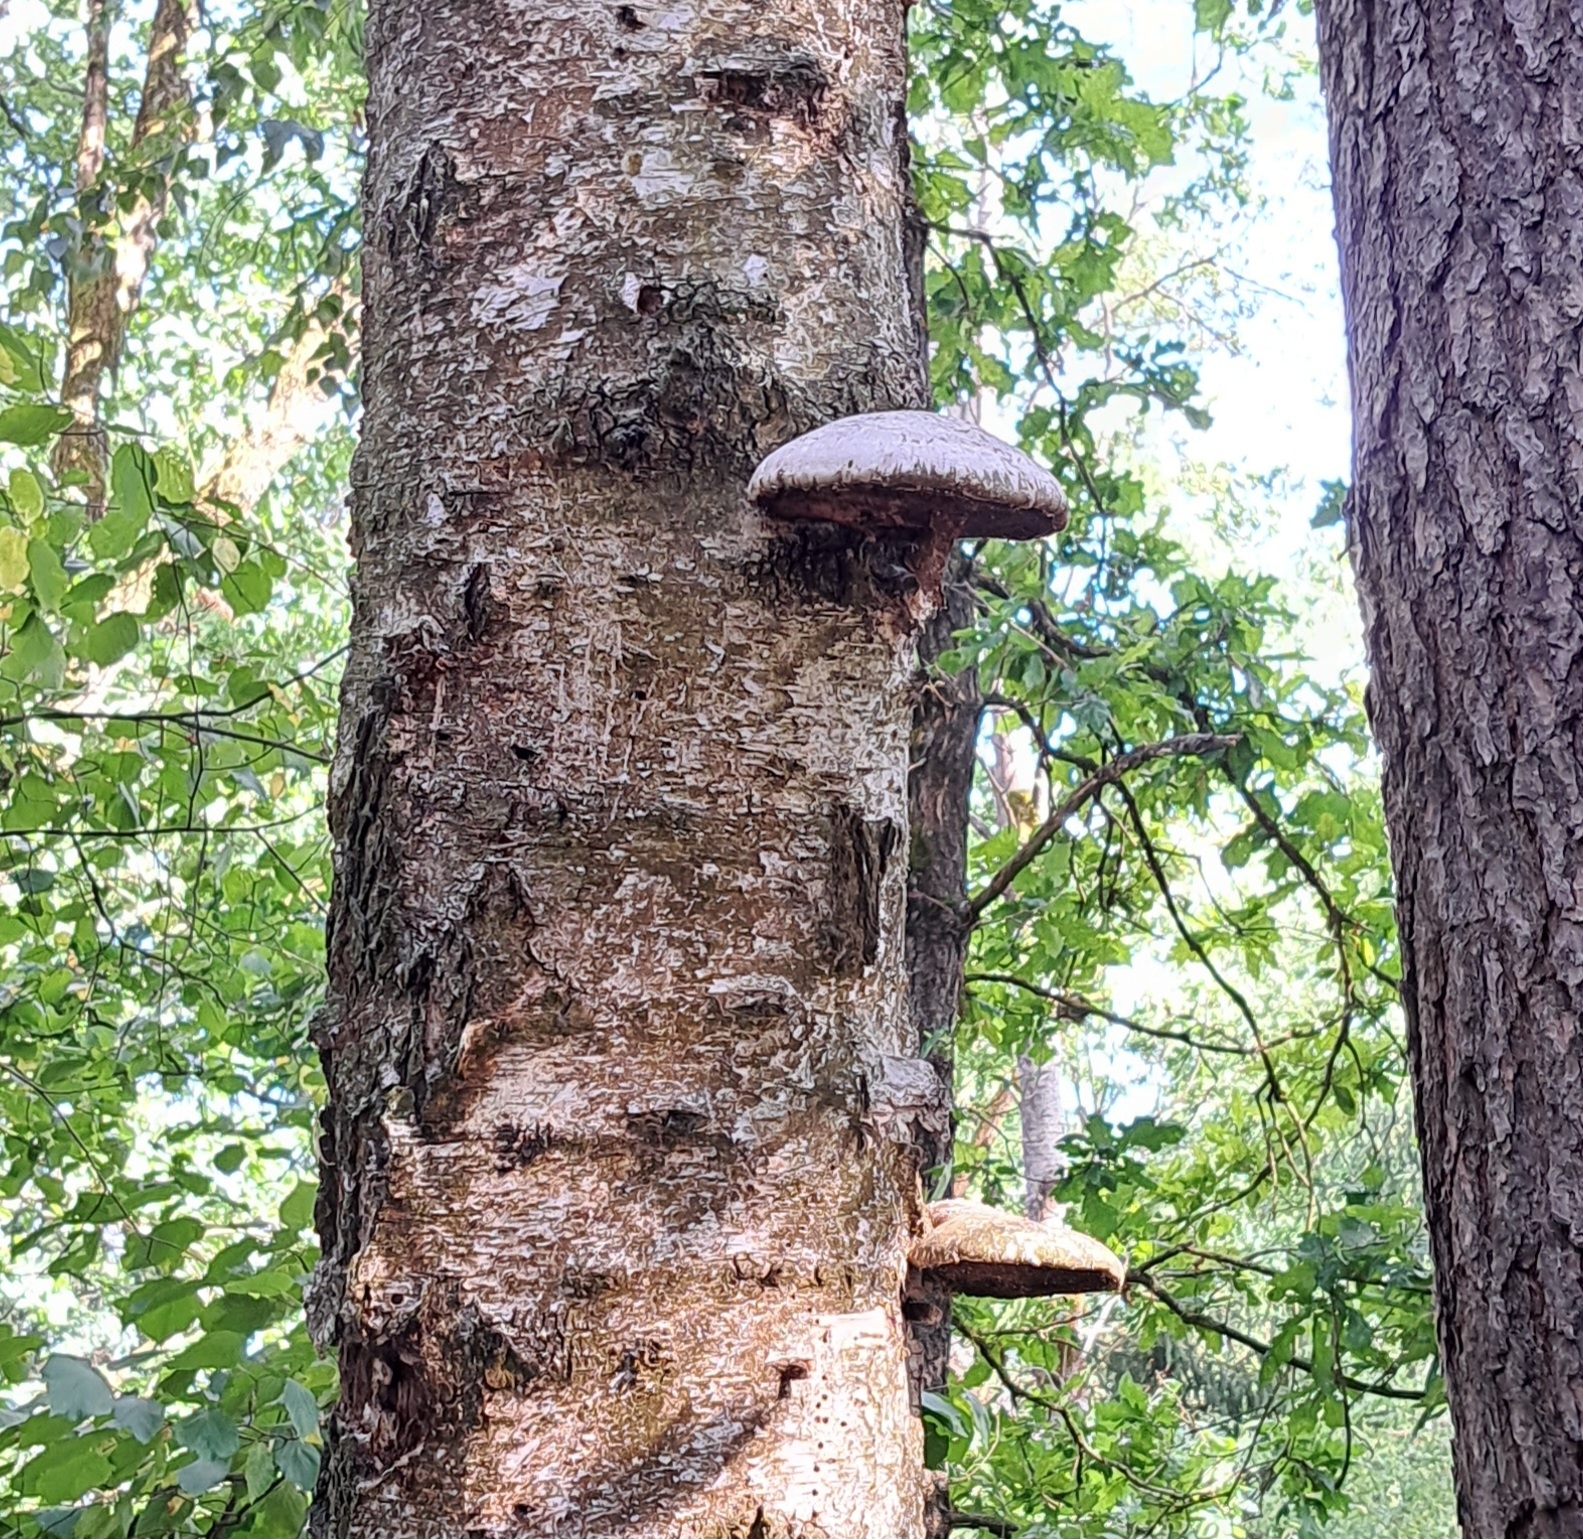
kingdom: Fungi
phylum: Basidiomycota
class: Agaricomycetes
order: Polyporales
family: Fomitopsidaceae
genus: Fomitopsis
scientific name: Fomitopsis betulina
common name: Birch polypore
